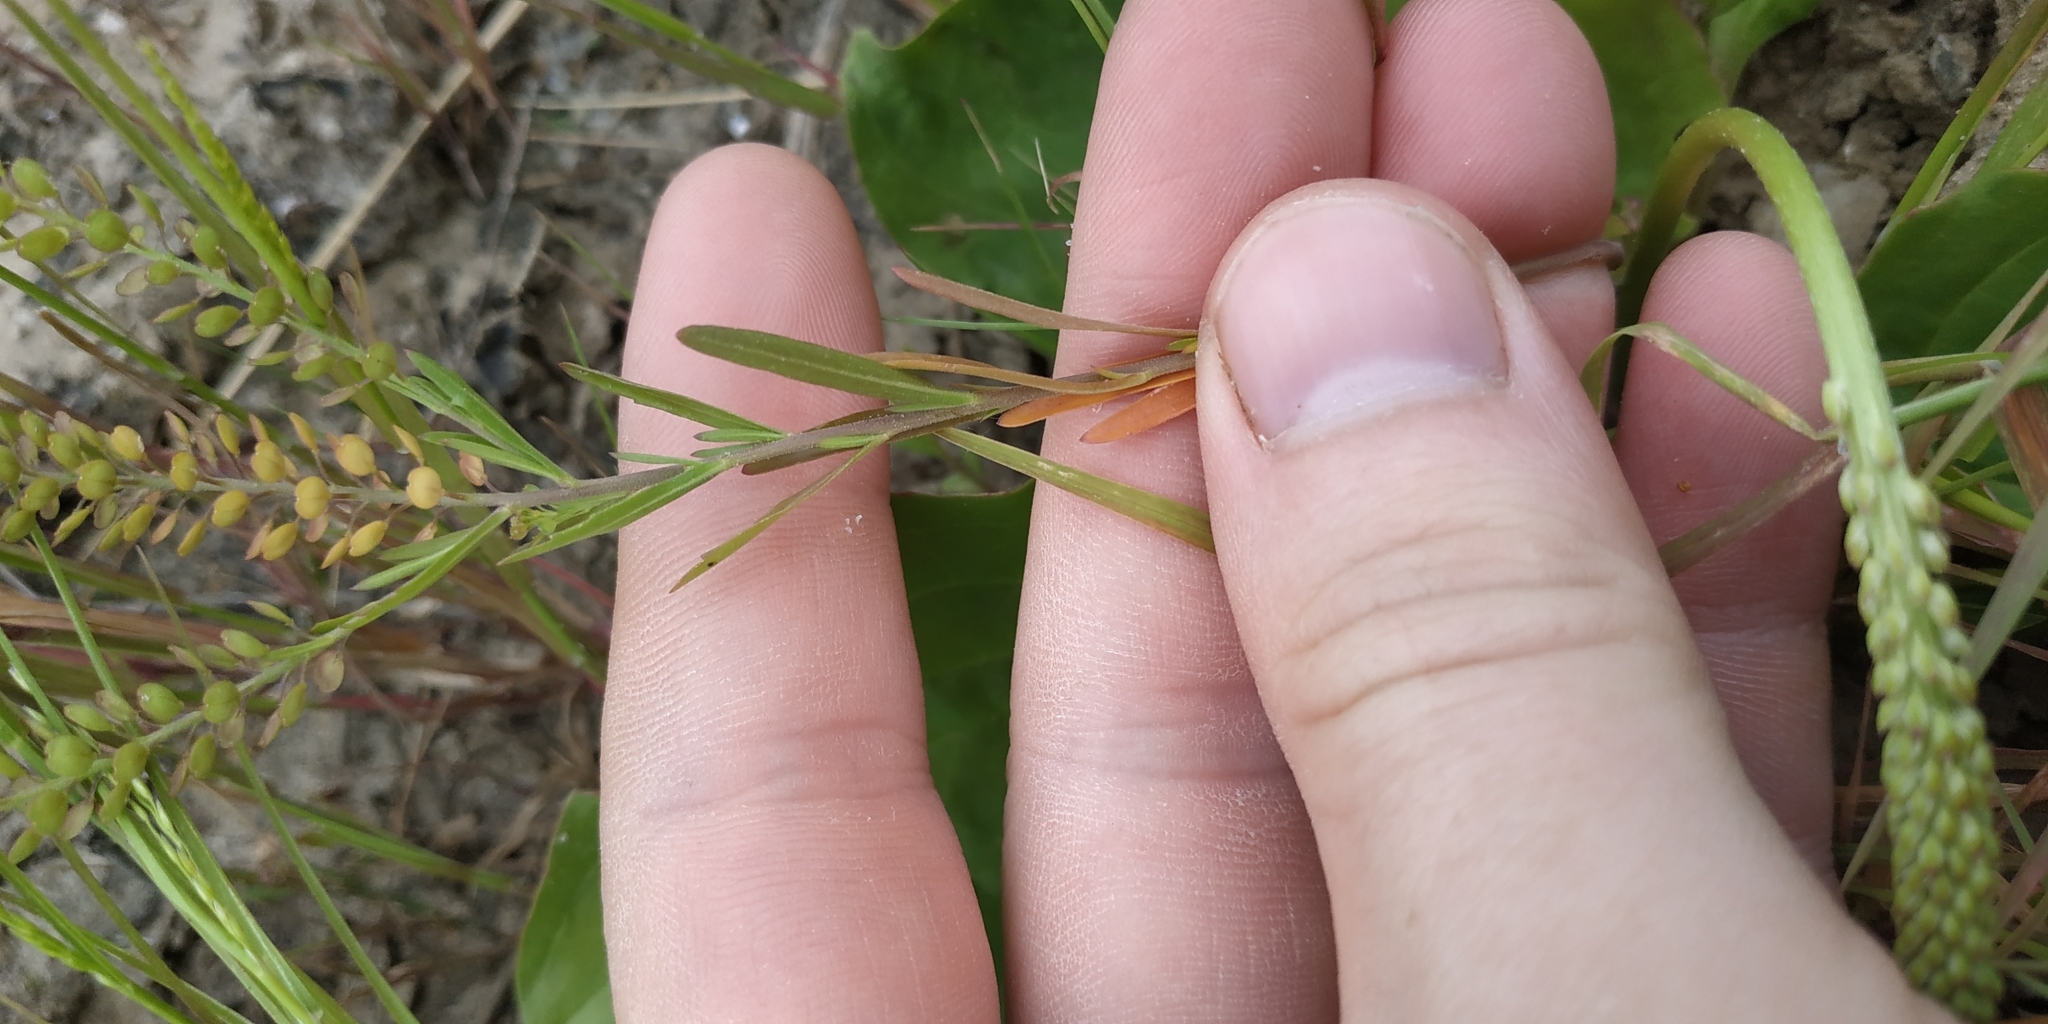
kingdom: Plantae
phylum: Tracheophyta
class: Magnoliopsida
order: Brassicales
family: Brassicaceae
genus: Lepidium
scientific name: Lepidium densiflorum
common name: Miner's pepperwort
